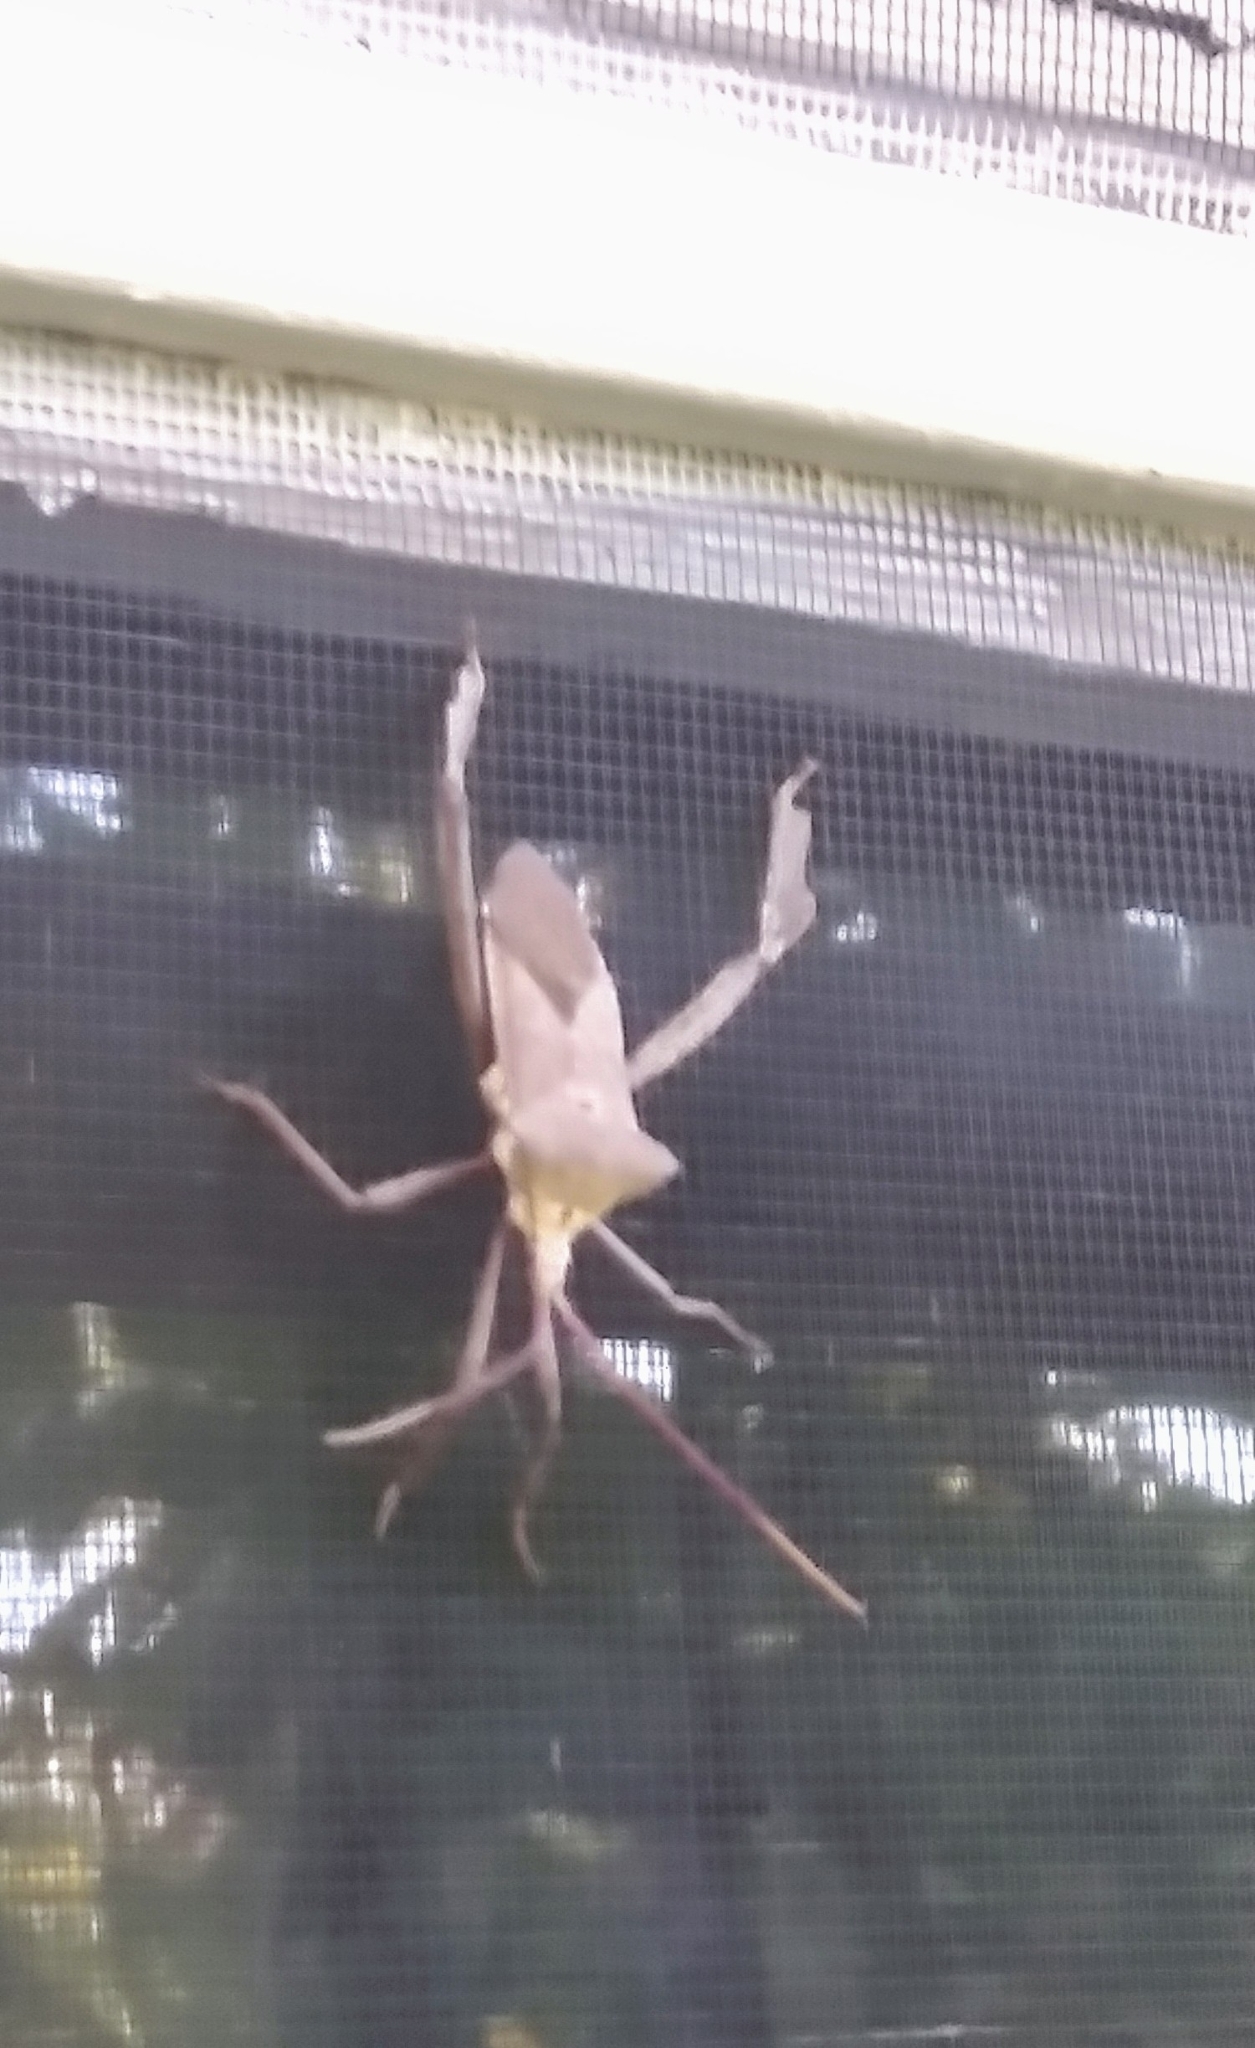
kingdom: Animalia
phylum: Arthropoda
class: Insecta
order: Hemiptera
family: Coreidae
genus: Acanthocephala
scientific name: Acanthocephala declivis
